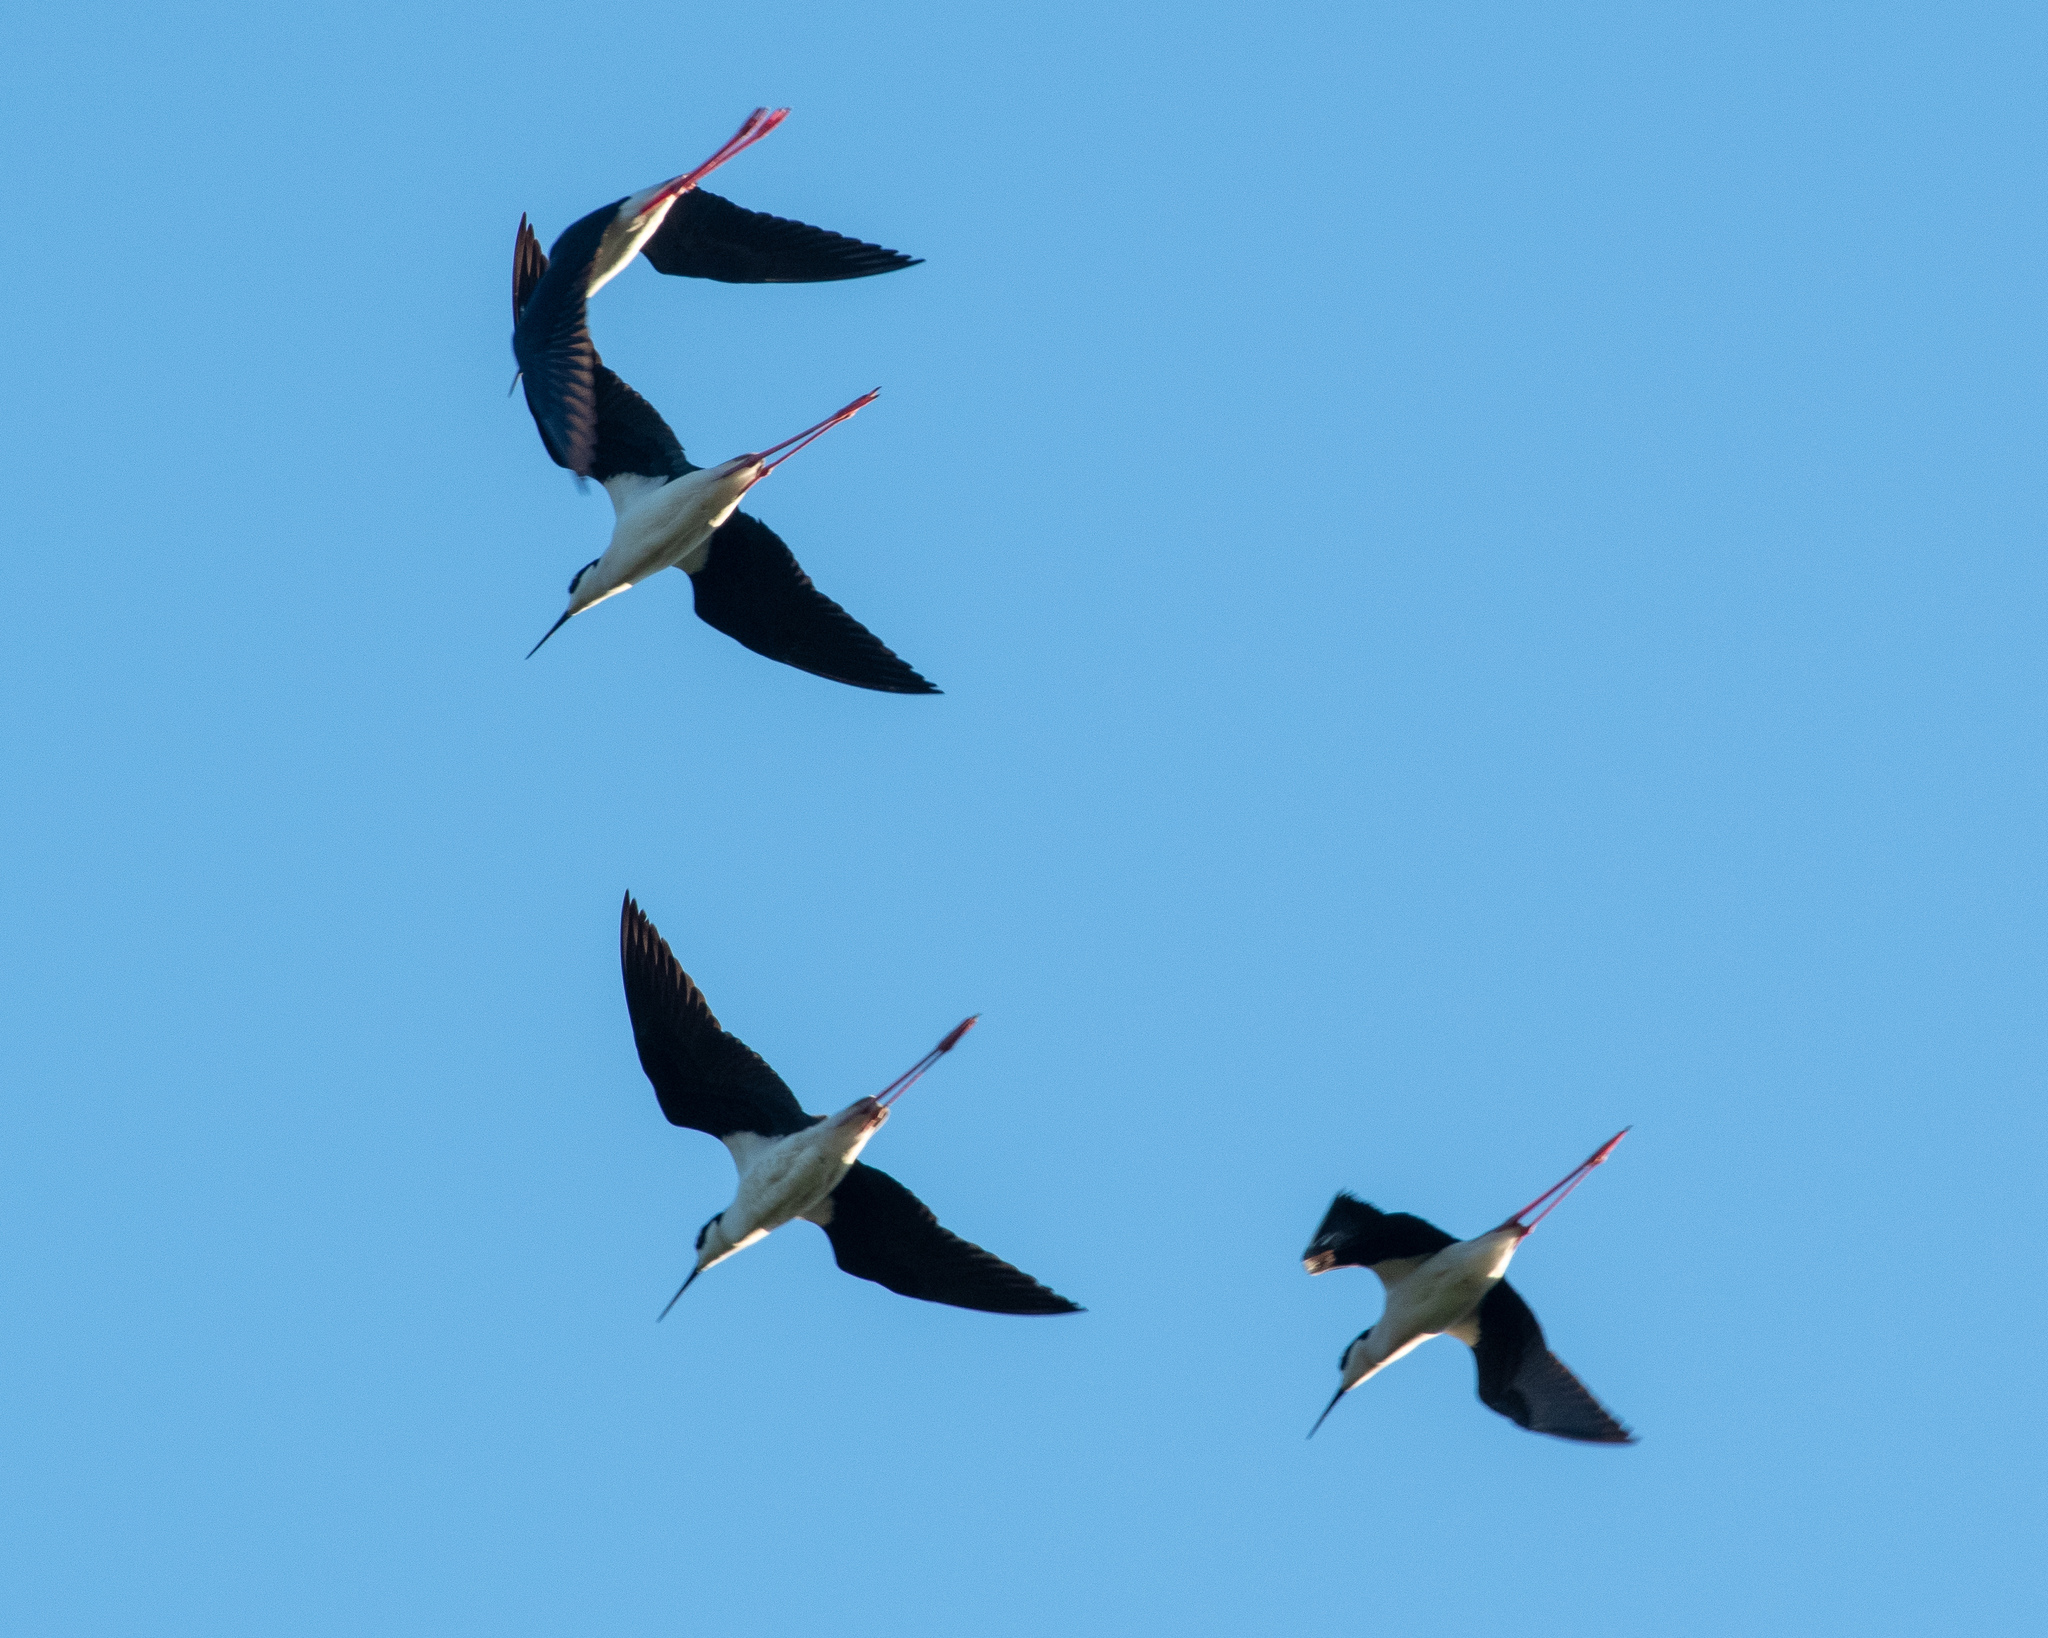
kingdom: Animalia
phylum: Chordata
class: Aves
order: Charadriiformes
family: Recurvirostridae
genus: Himantopus
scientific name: Himantopus mexicanus
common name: Black-necked stilt
